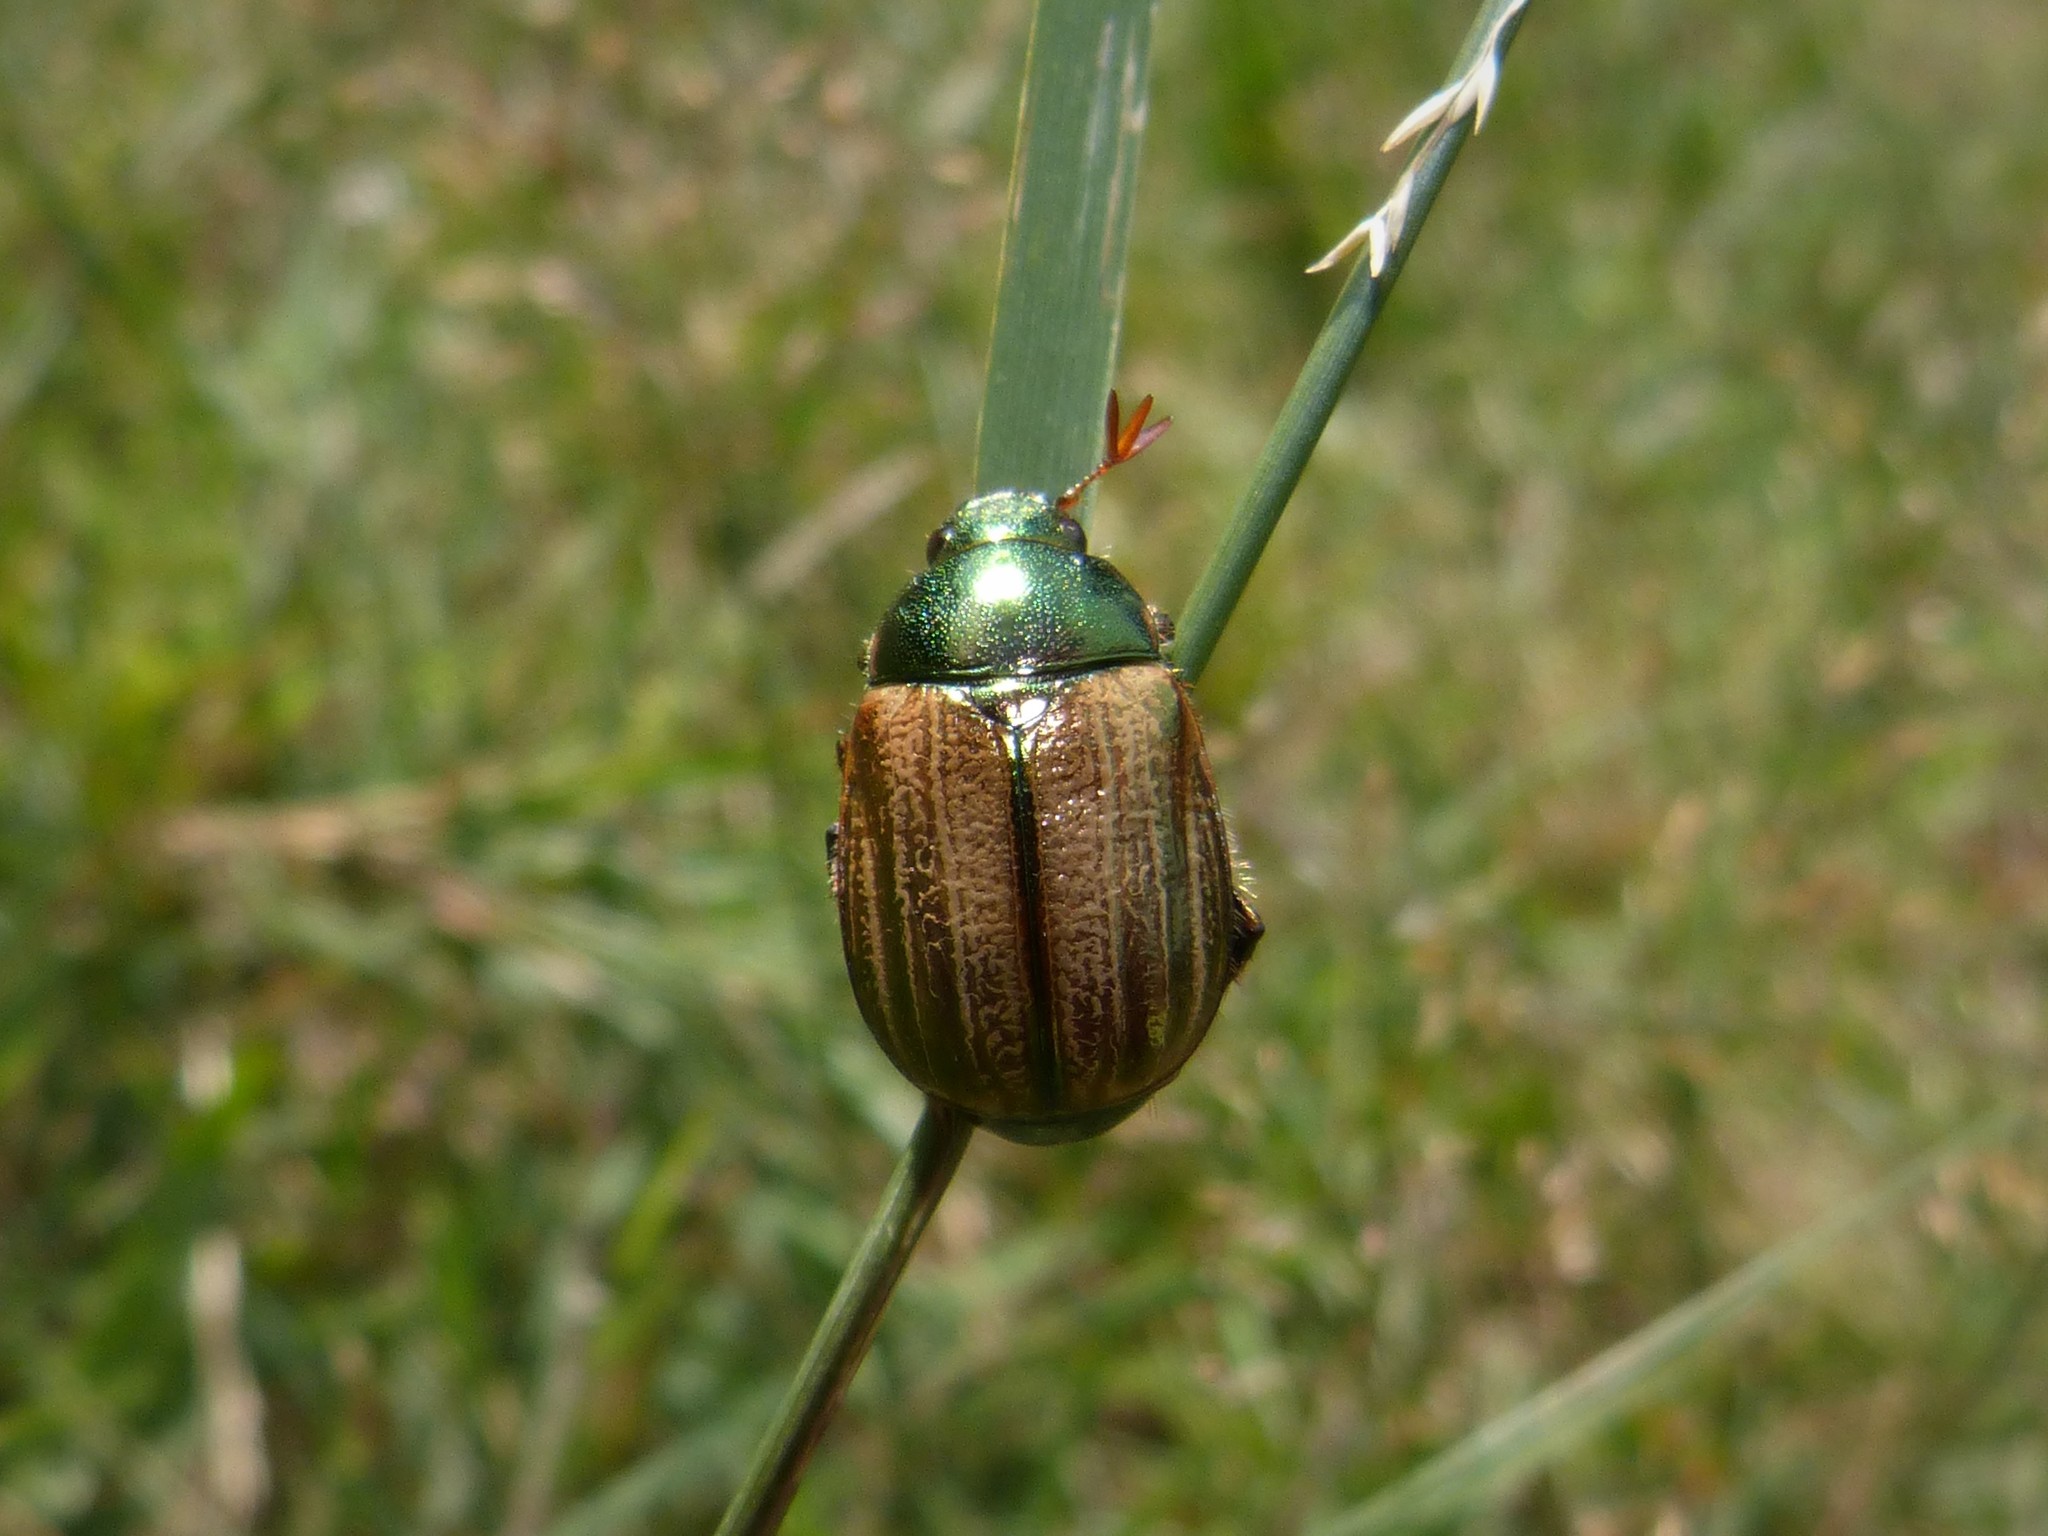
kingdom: Animalia
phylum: Arthropoda
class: Insecta
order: Coleoptera
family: Scarabaeidae
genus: Mimela
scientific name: Mimela junii
